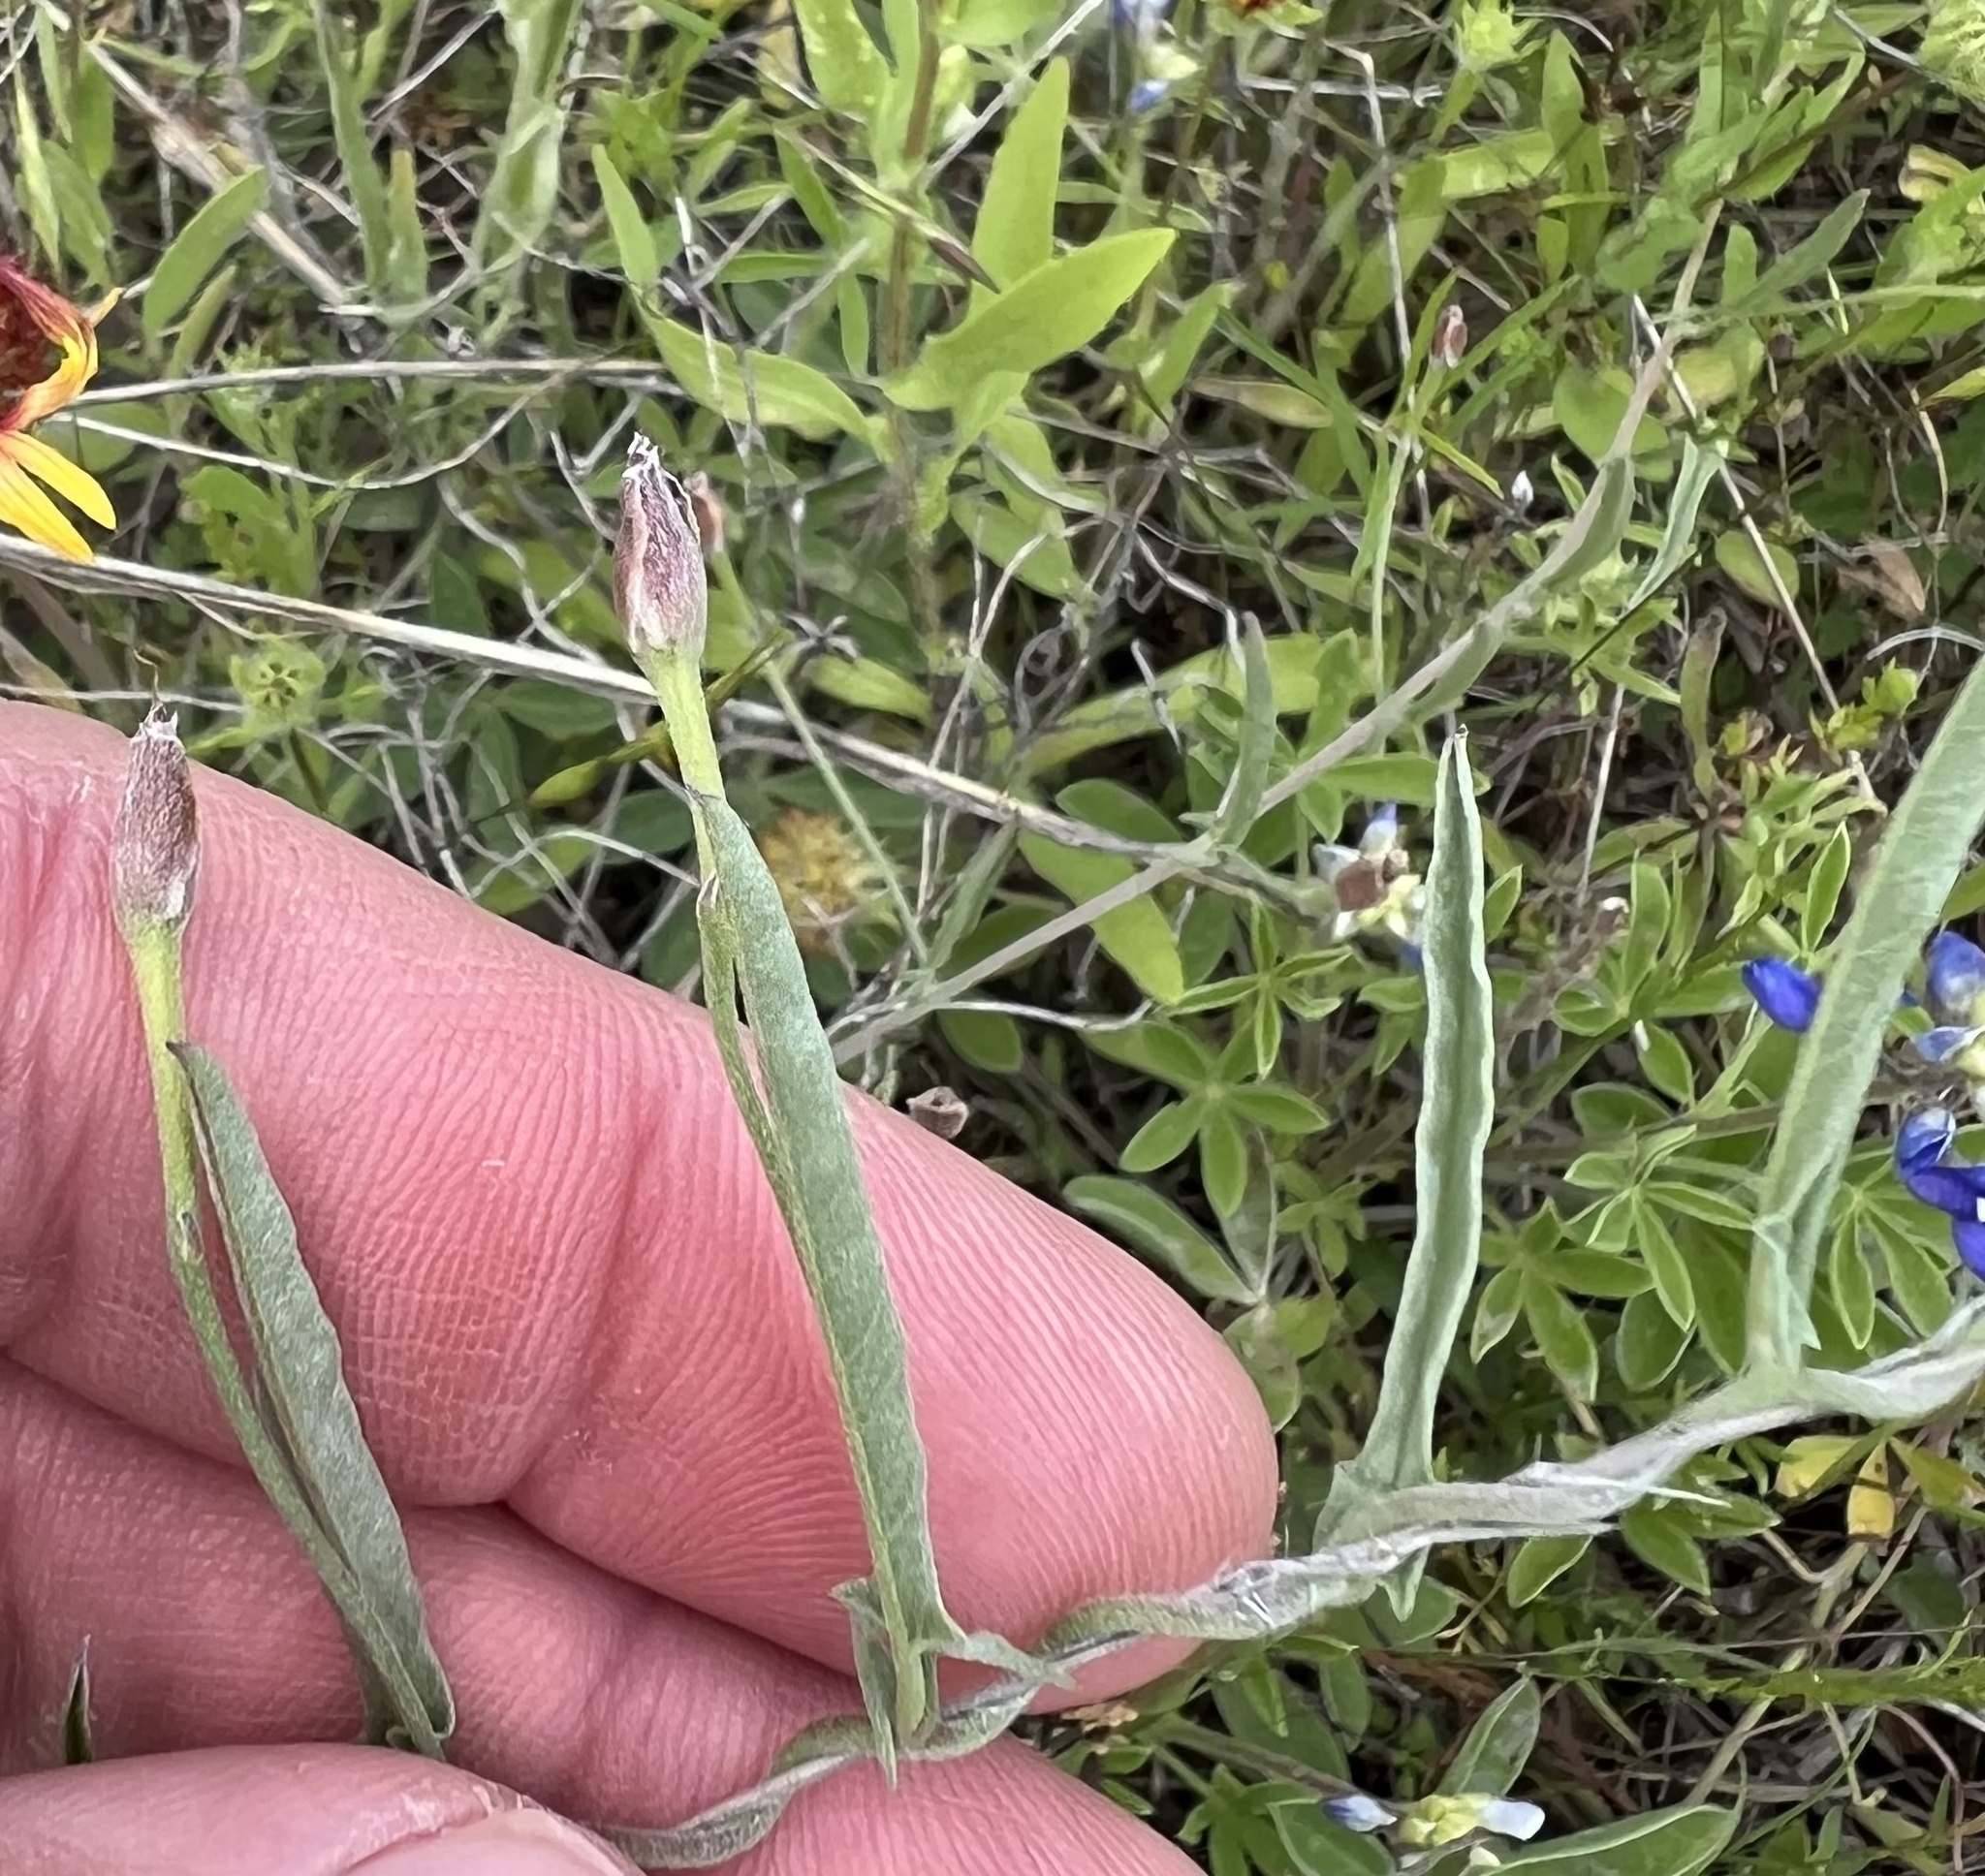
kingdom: Plantae
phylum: Tracheophyta
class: Magnoliopsida
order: Solanales
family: Convolvulaceae
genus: Convolvulus
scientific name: Convolvulus equitans
